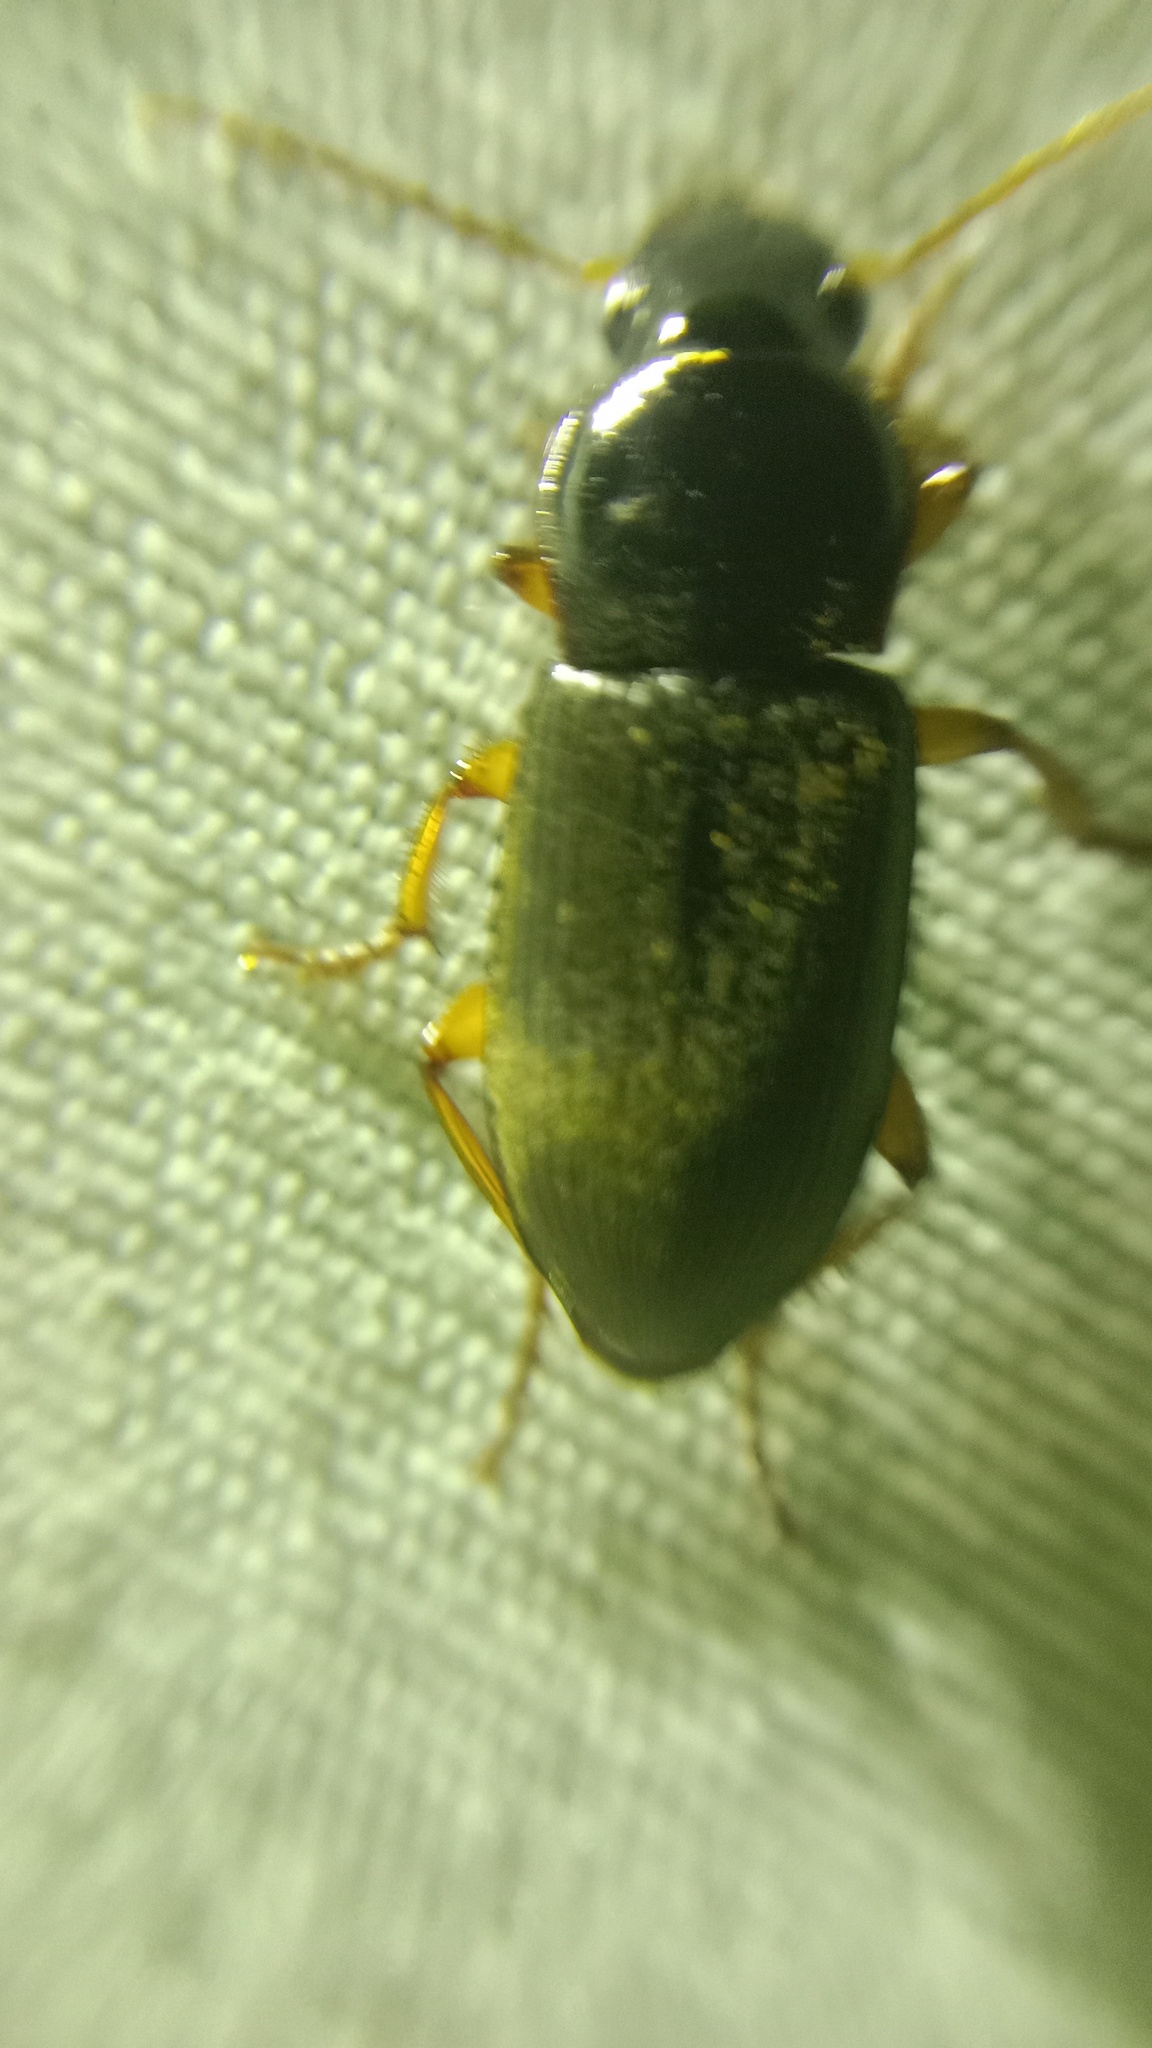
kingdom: Animalia
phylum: Arthropoda
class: Insecta
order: Coleoptera
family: Carabidae
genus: Harpalus
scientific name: Harpalus rufipes
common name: Strawberry harp ground beetle
